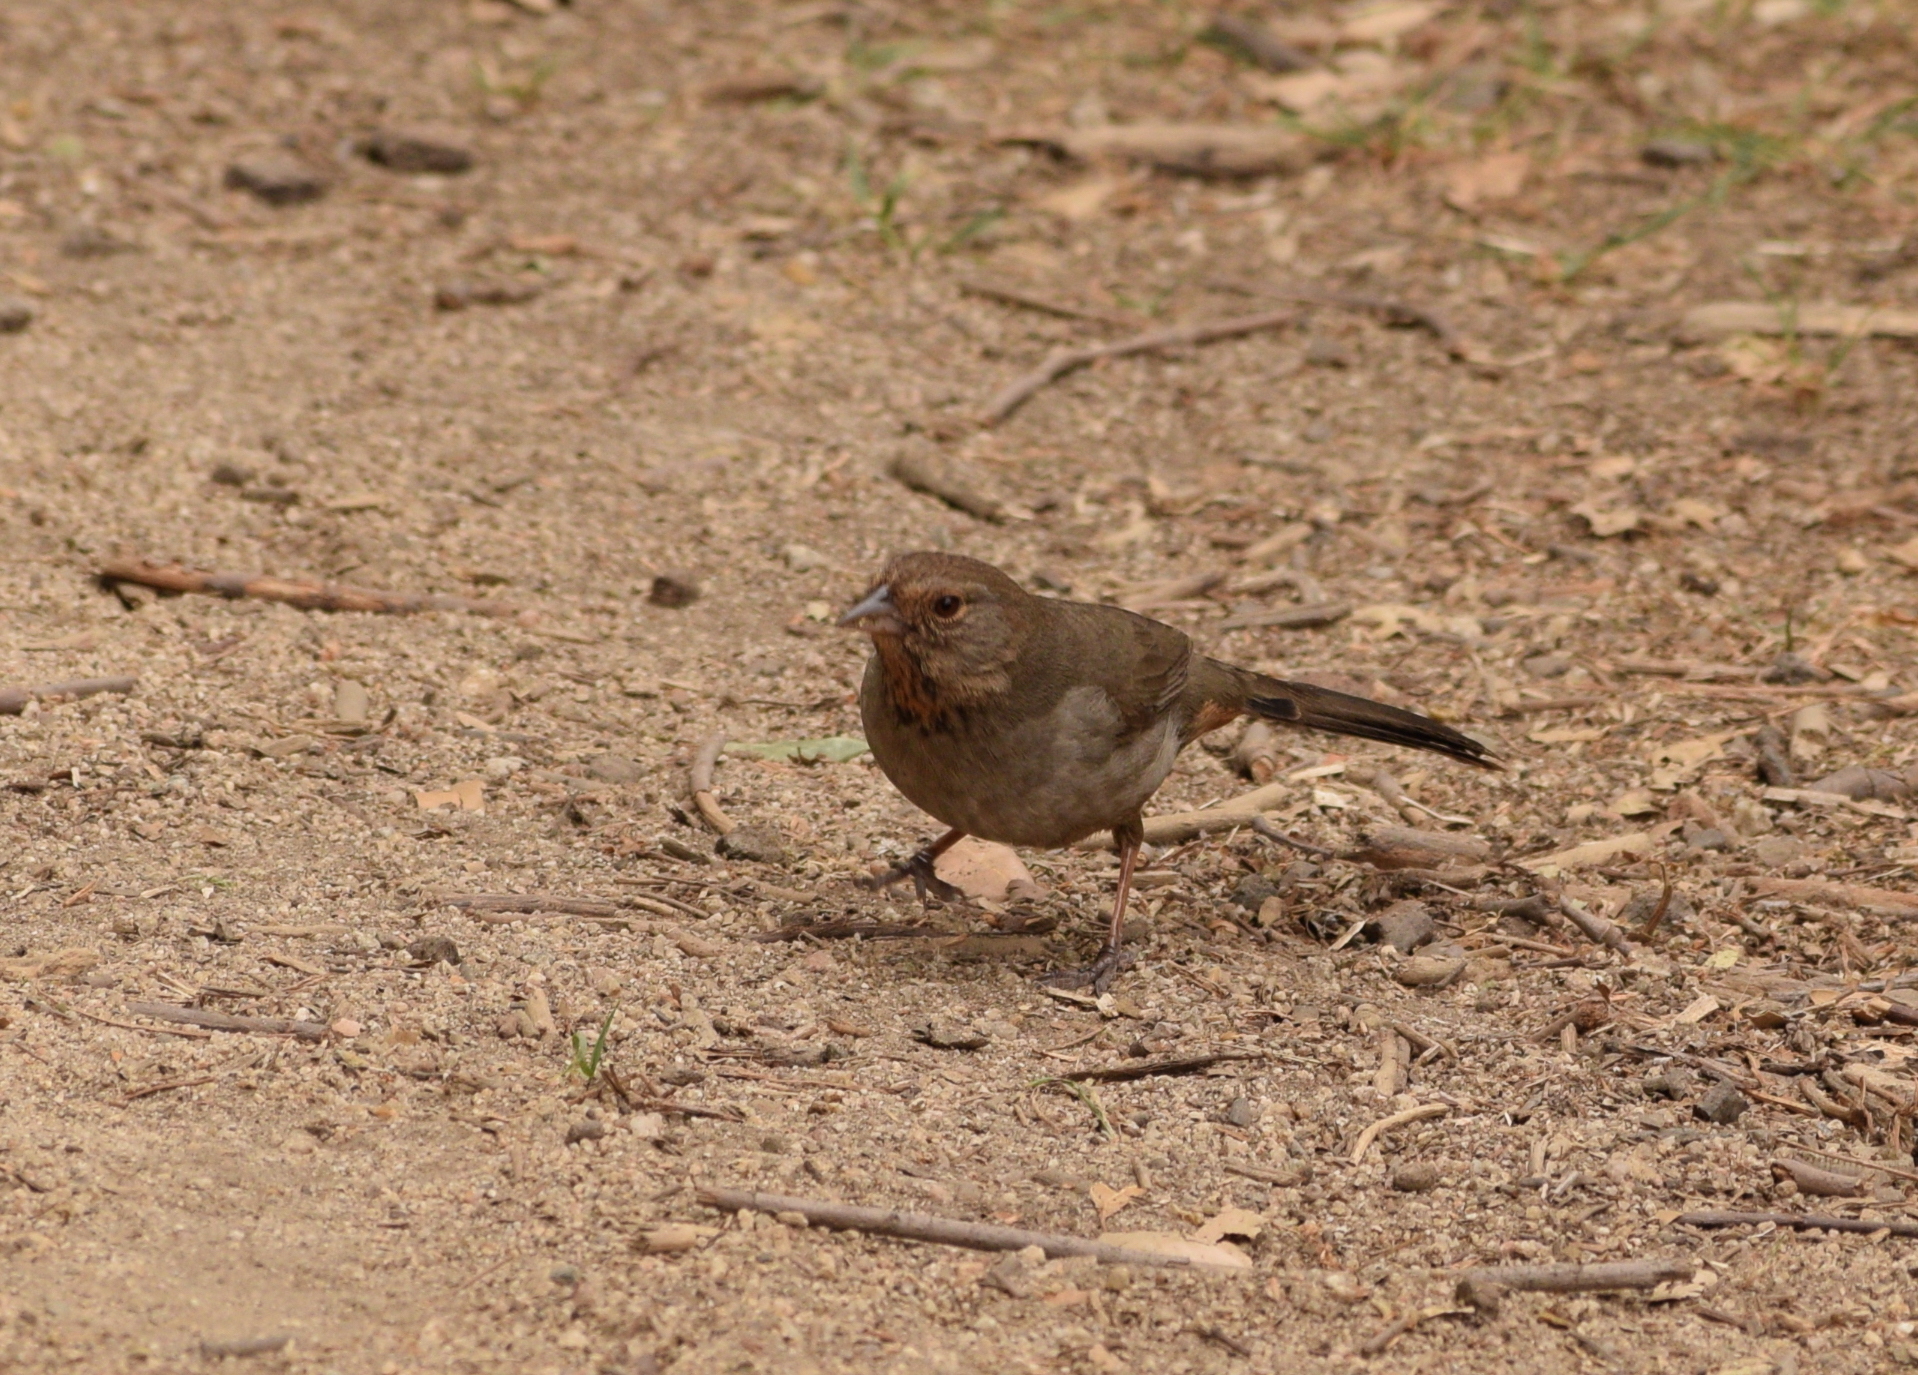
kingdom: Animalia
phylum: Chordata
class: Aves
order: Passeriformes
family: Passerellidae
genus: Melozone
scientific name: Melozone crissalis
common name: California towhee
